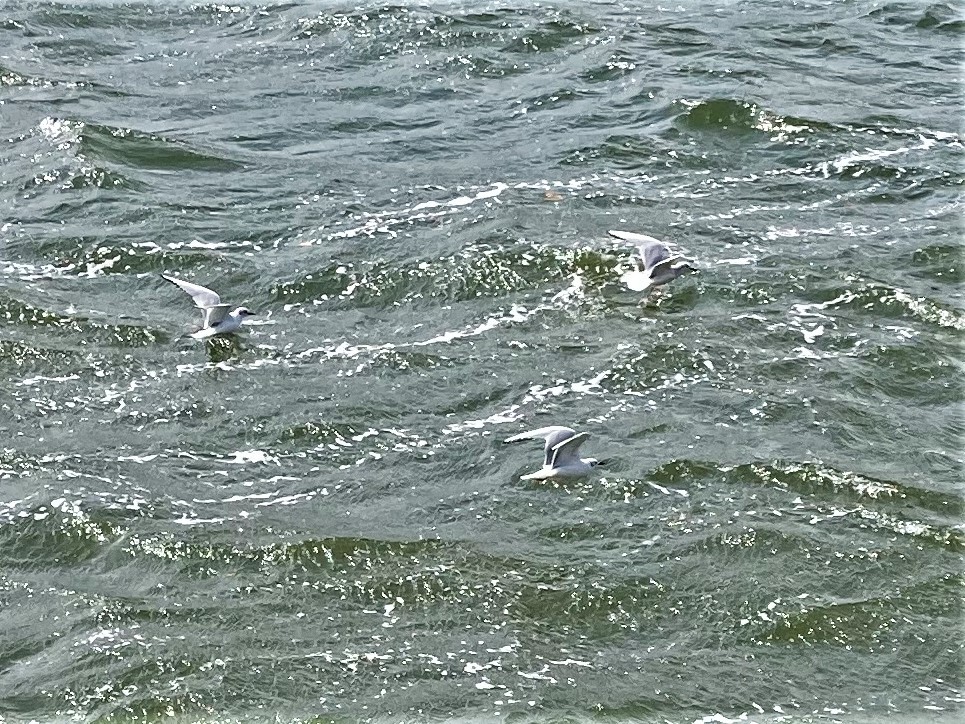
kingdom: Animalia
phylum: Chordata
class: Aves
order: Charadriiformes
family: Laridae
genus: Chroicocephalus
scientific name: Chroicocephalus philadelphia
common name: Bonaparte's gull
